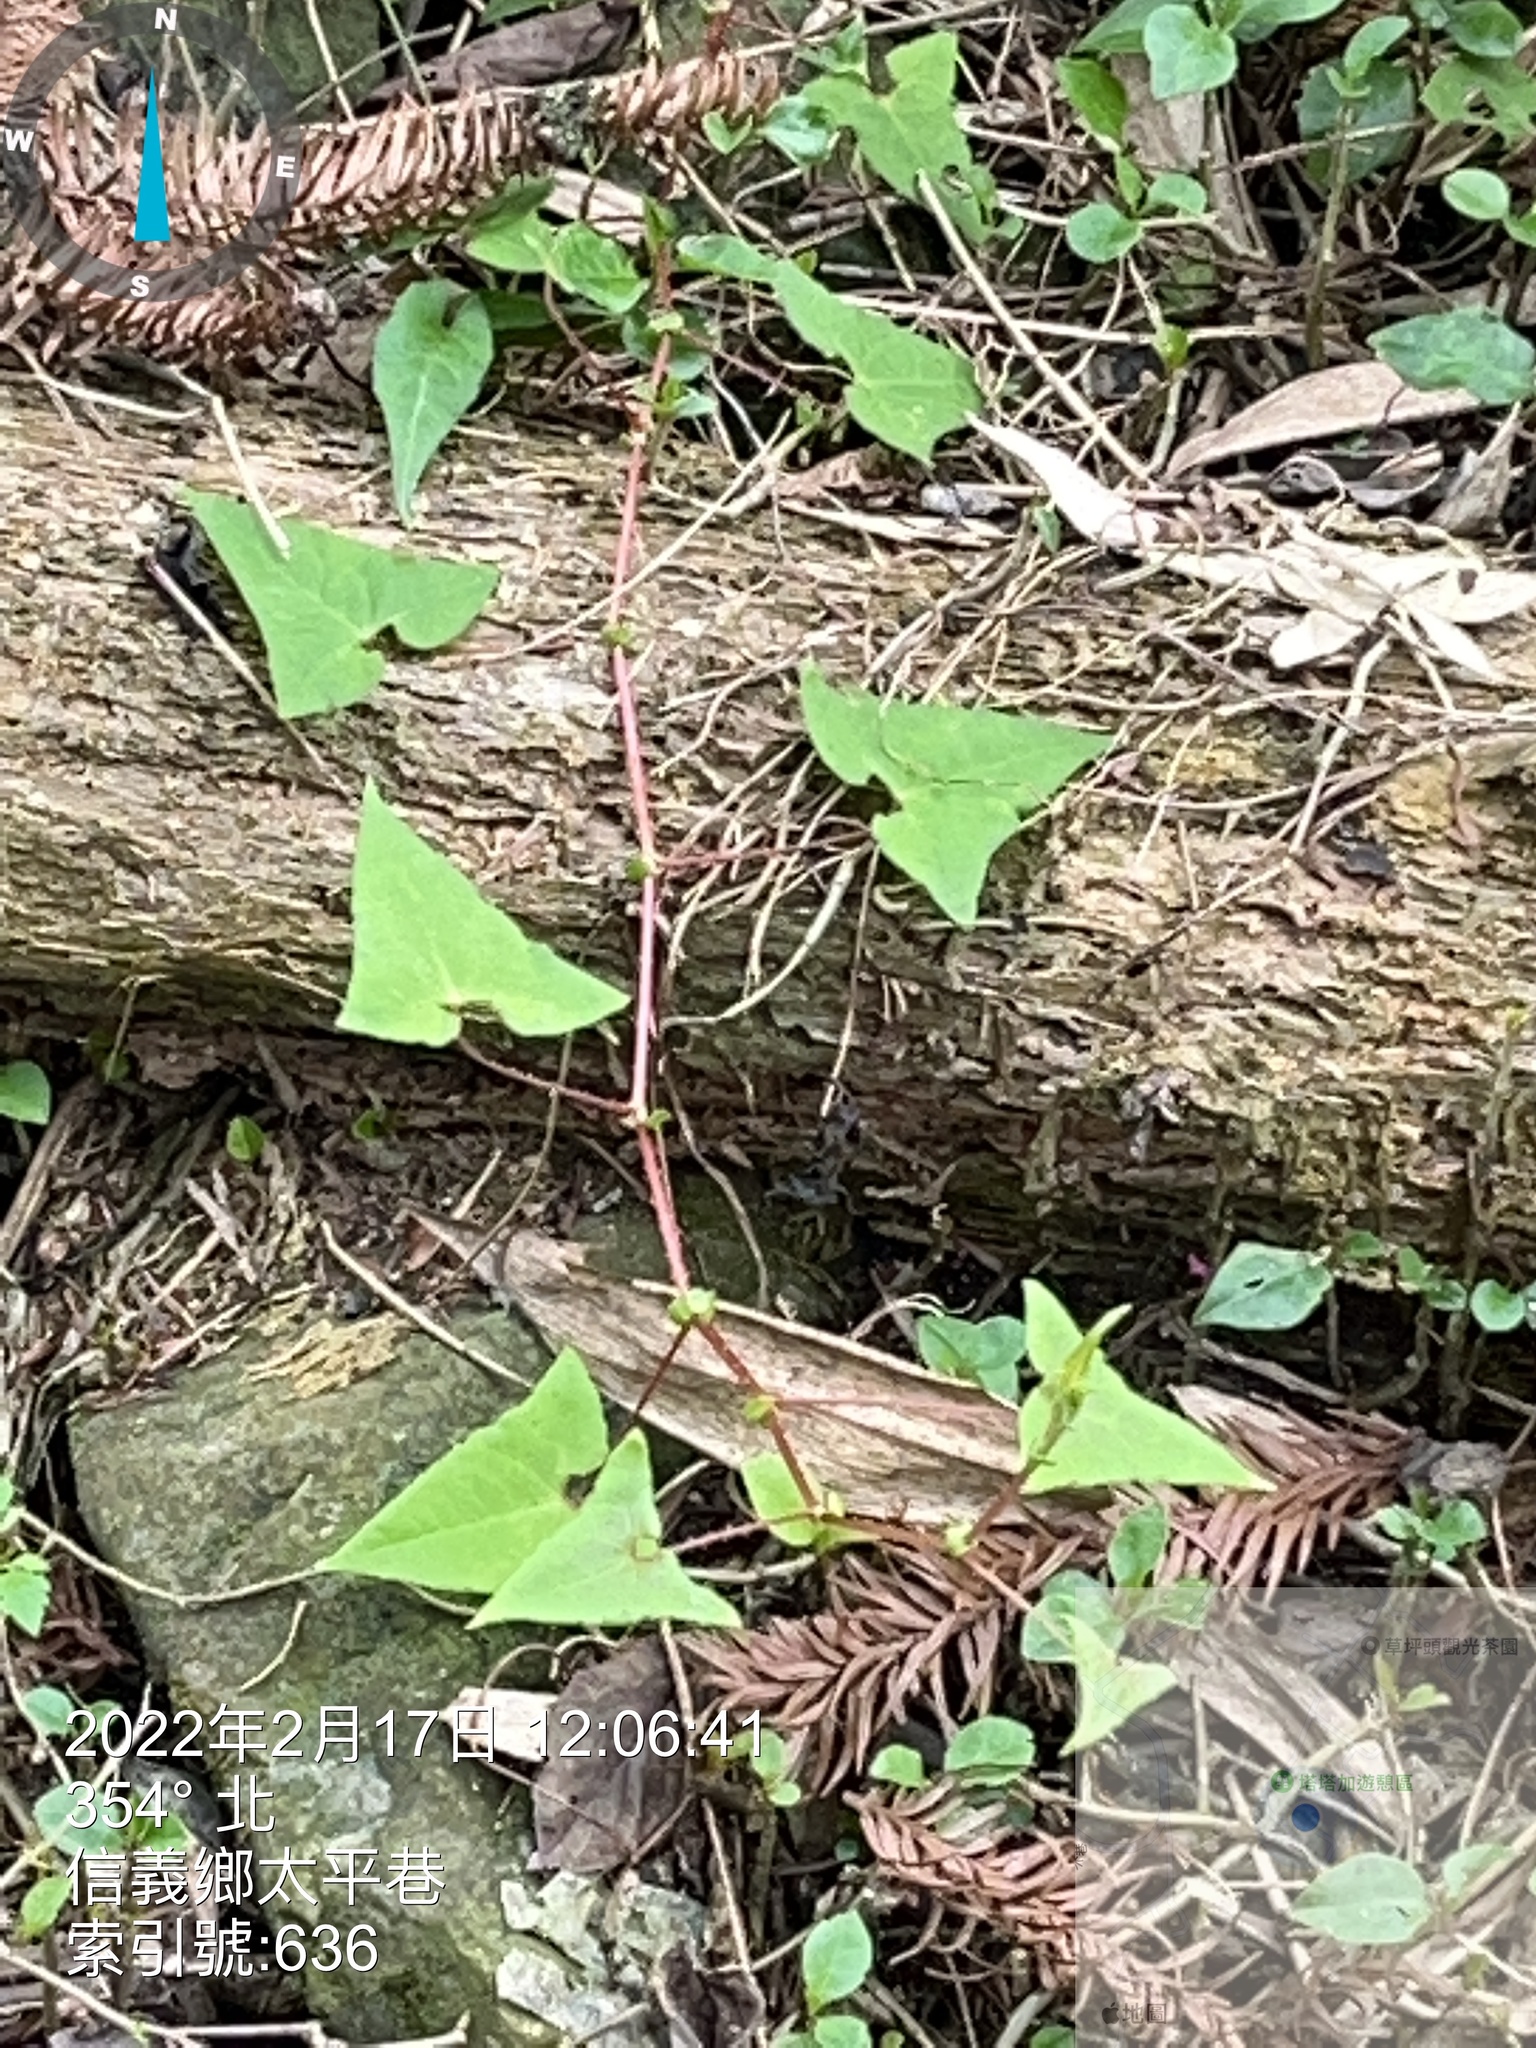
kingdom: Plantae
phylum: Tracheophyta
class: Magnoliopsida
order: Caryophyllales
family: Polygonaceae
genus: Persicaria
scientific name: Persicaria senticosa
